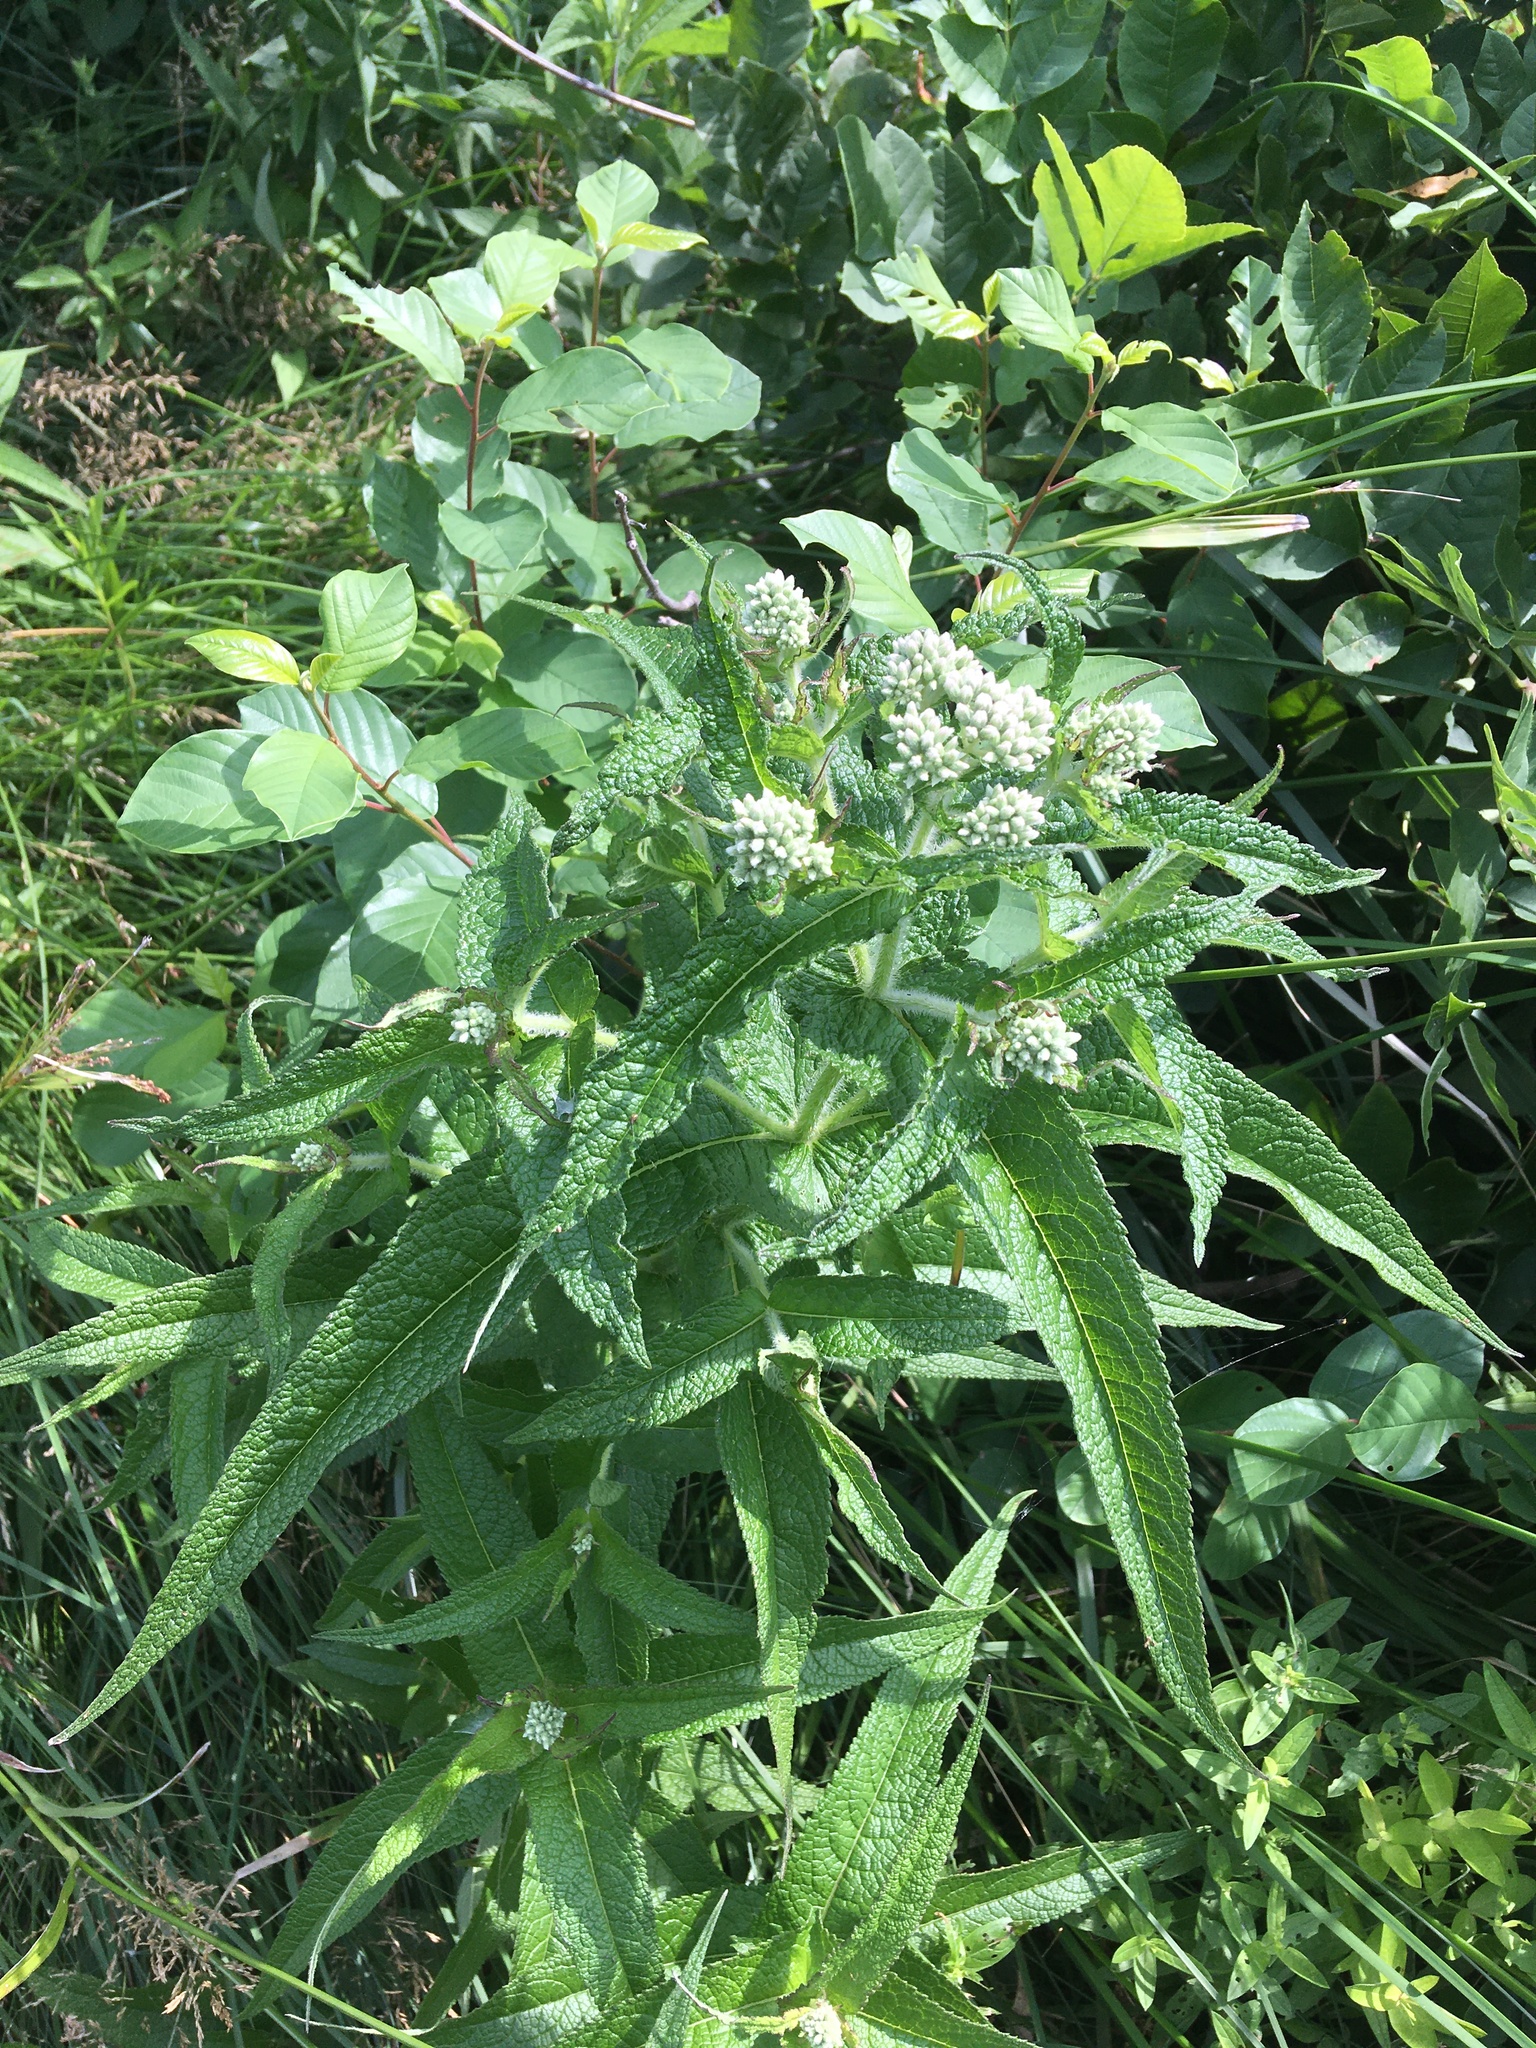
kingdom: Plantae
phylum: Tracheophyta
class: Magnoliopsida
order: Asterales
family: Asteraceae
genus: Eupatorium
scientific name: Eupatorium perfoliatum
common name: Boneset
